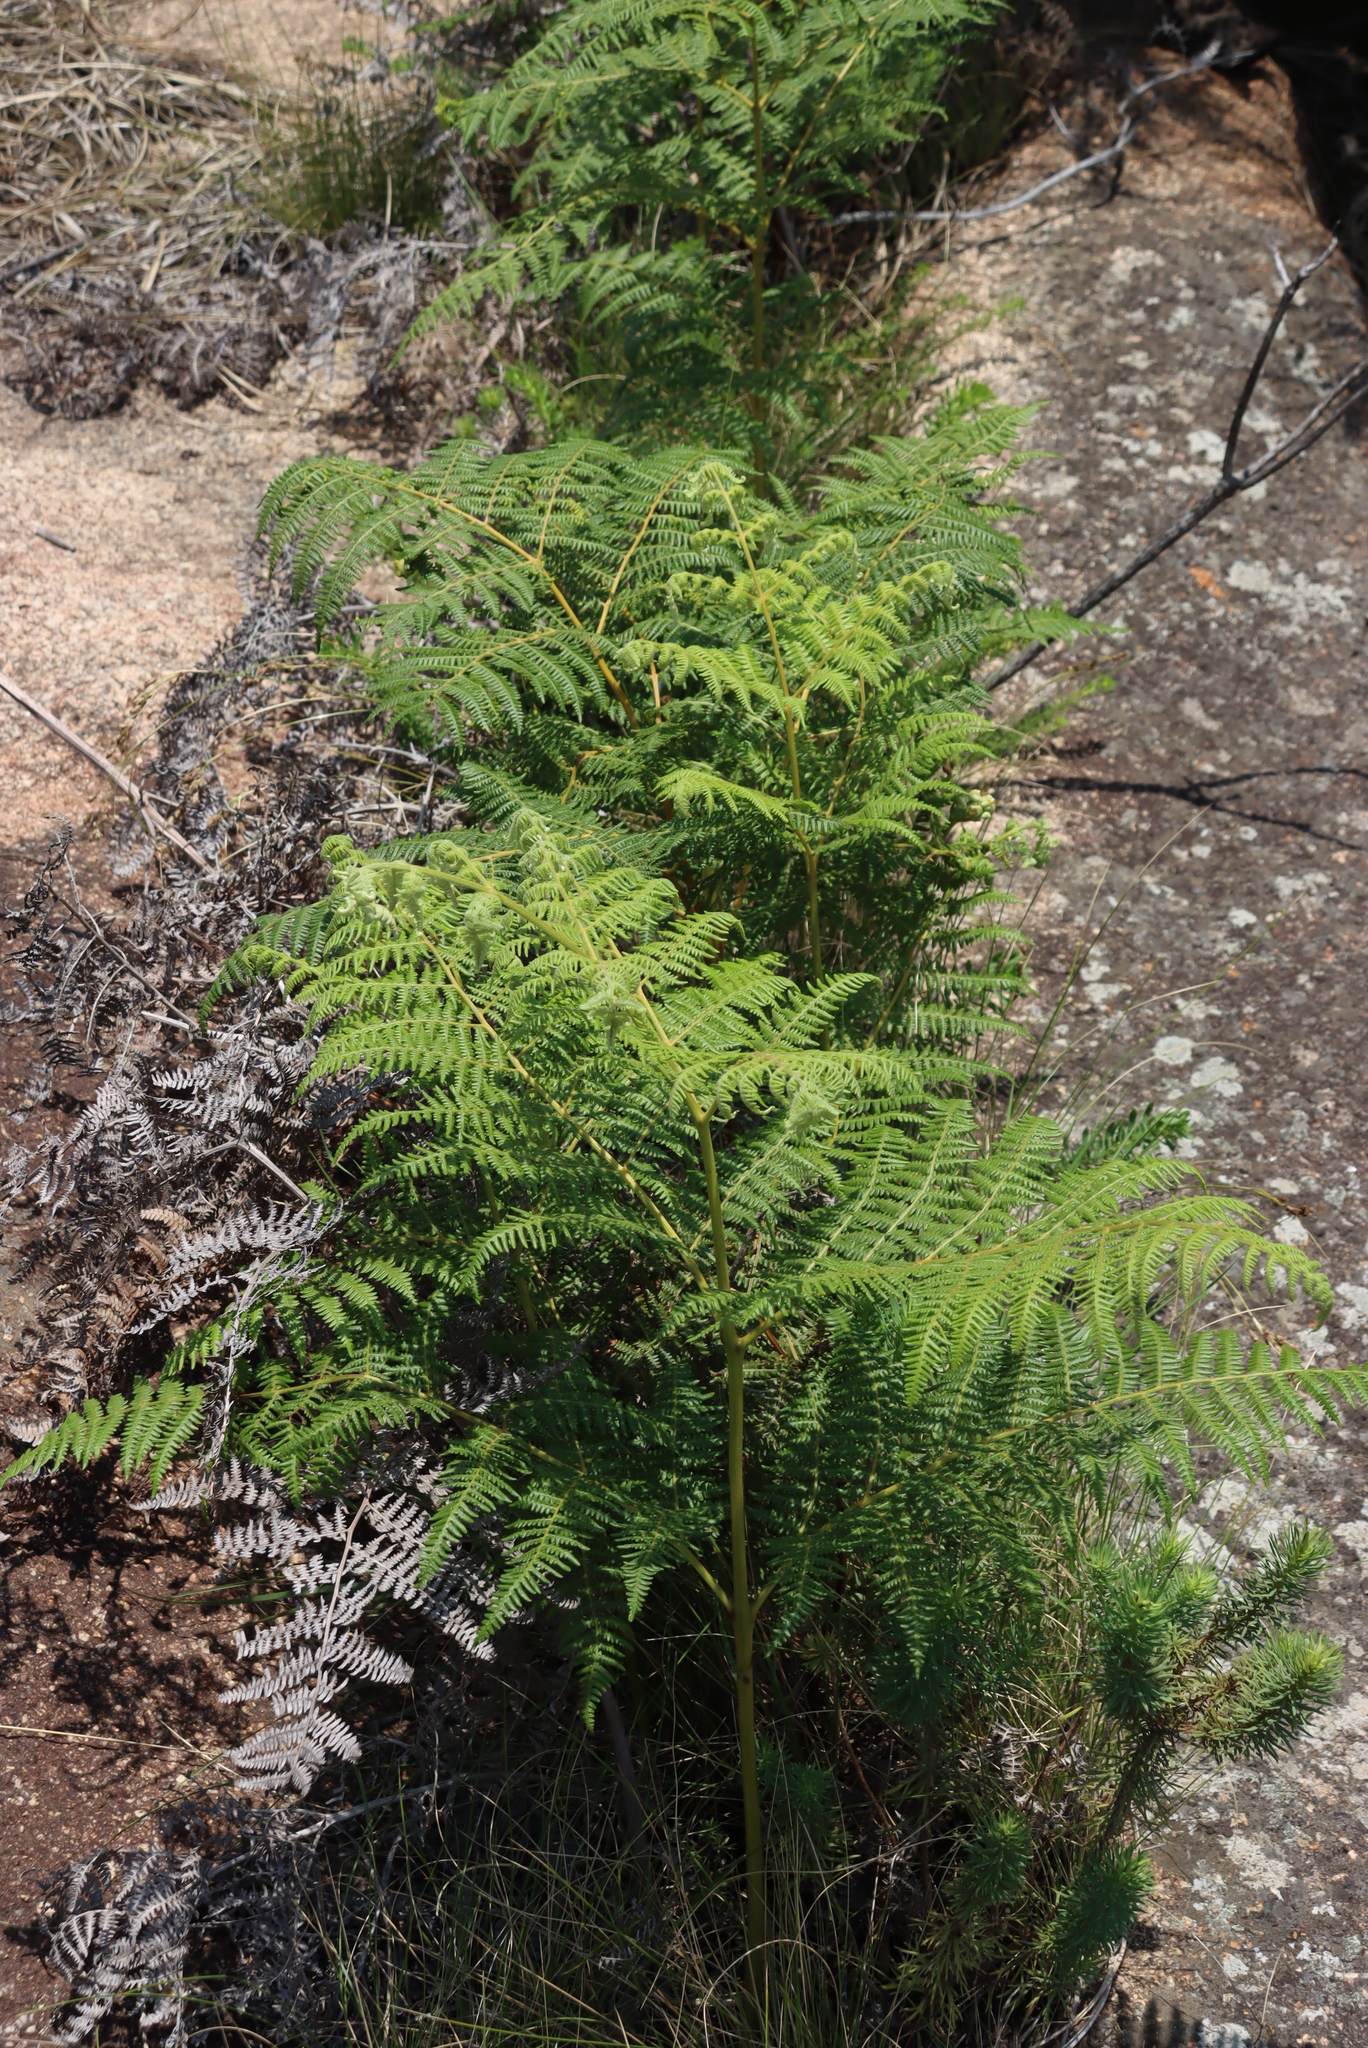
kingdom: Plantae
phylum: Tracheophyta
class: Polypodiopsida
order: Polypodiales
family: Dennstaedtiaceae
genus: Pteridium
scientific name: Pteridium aquilinum
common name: Bracken
